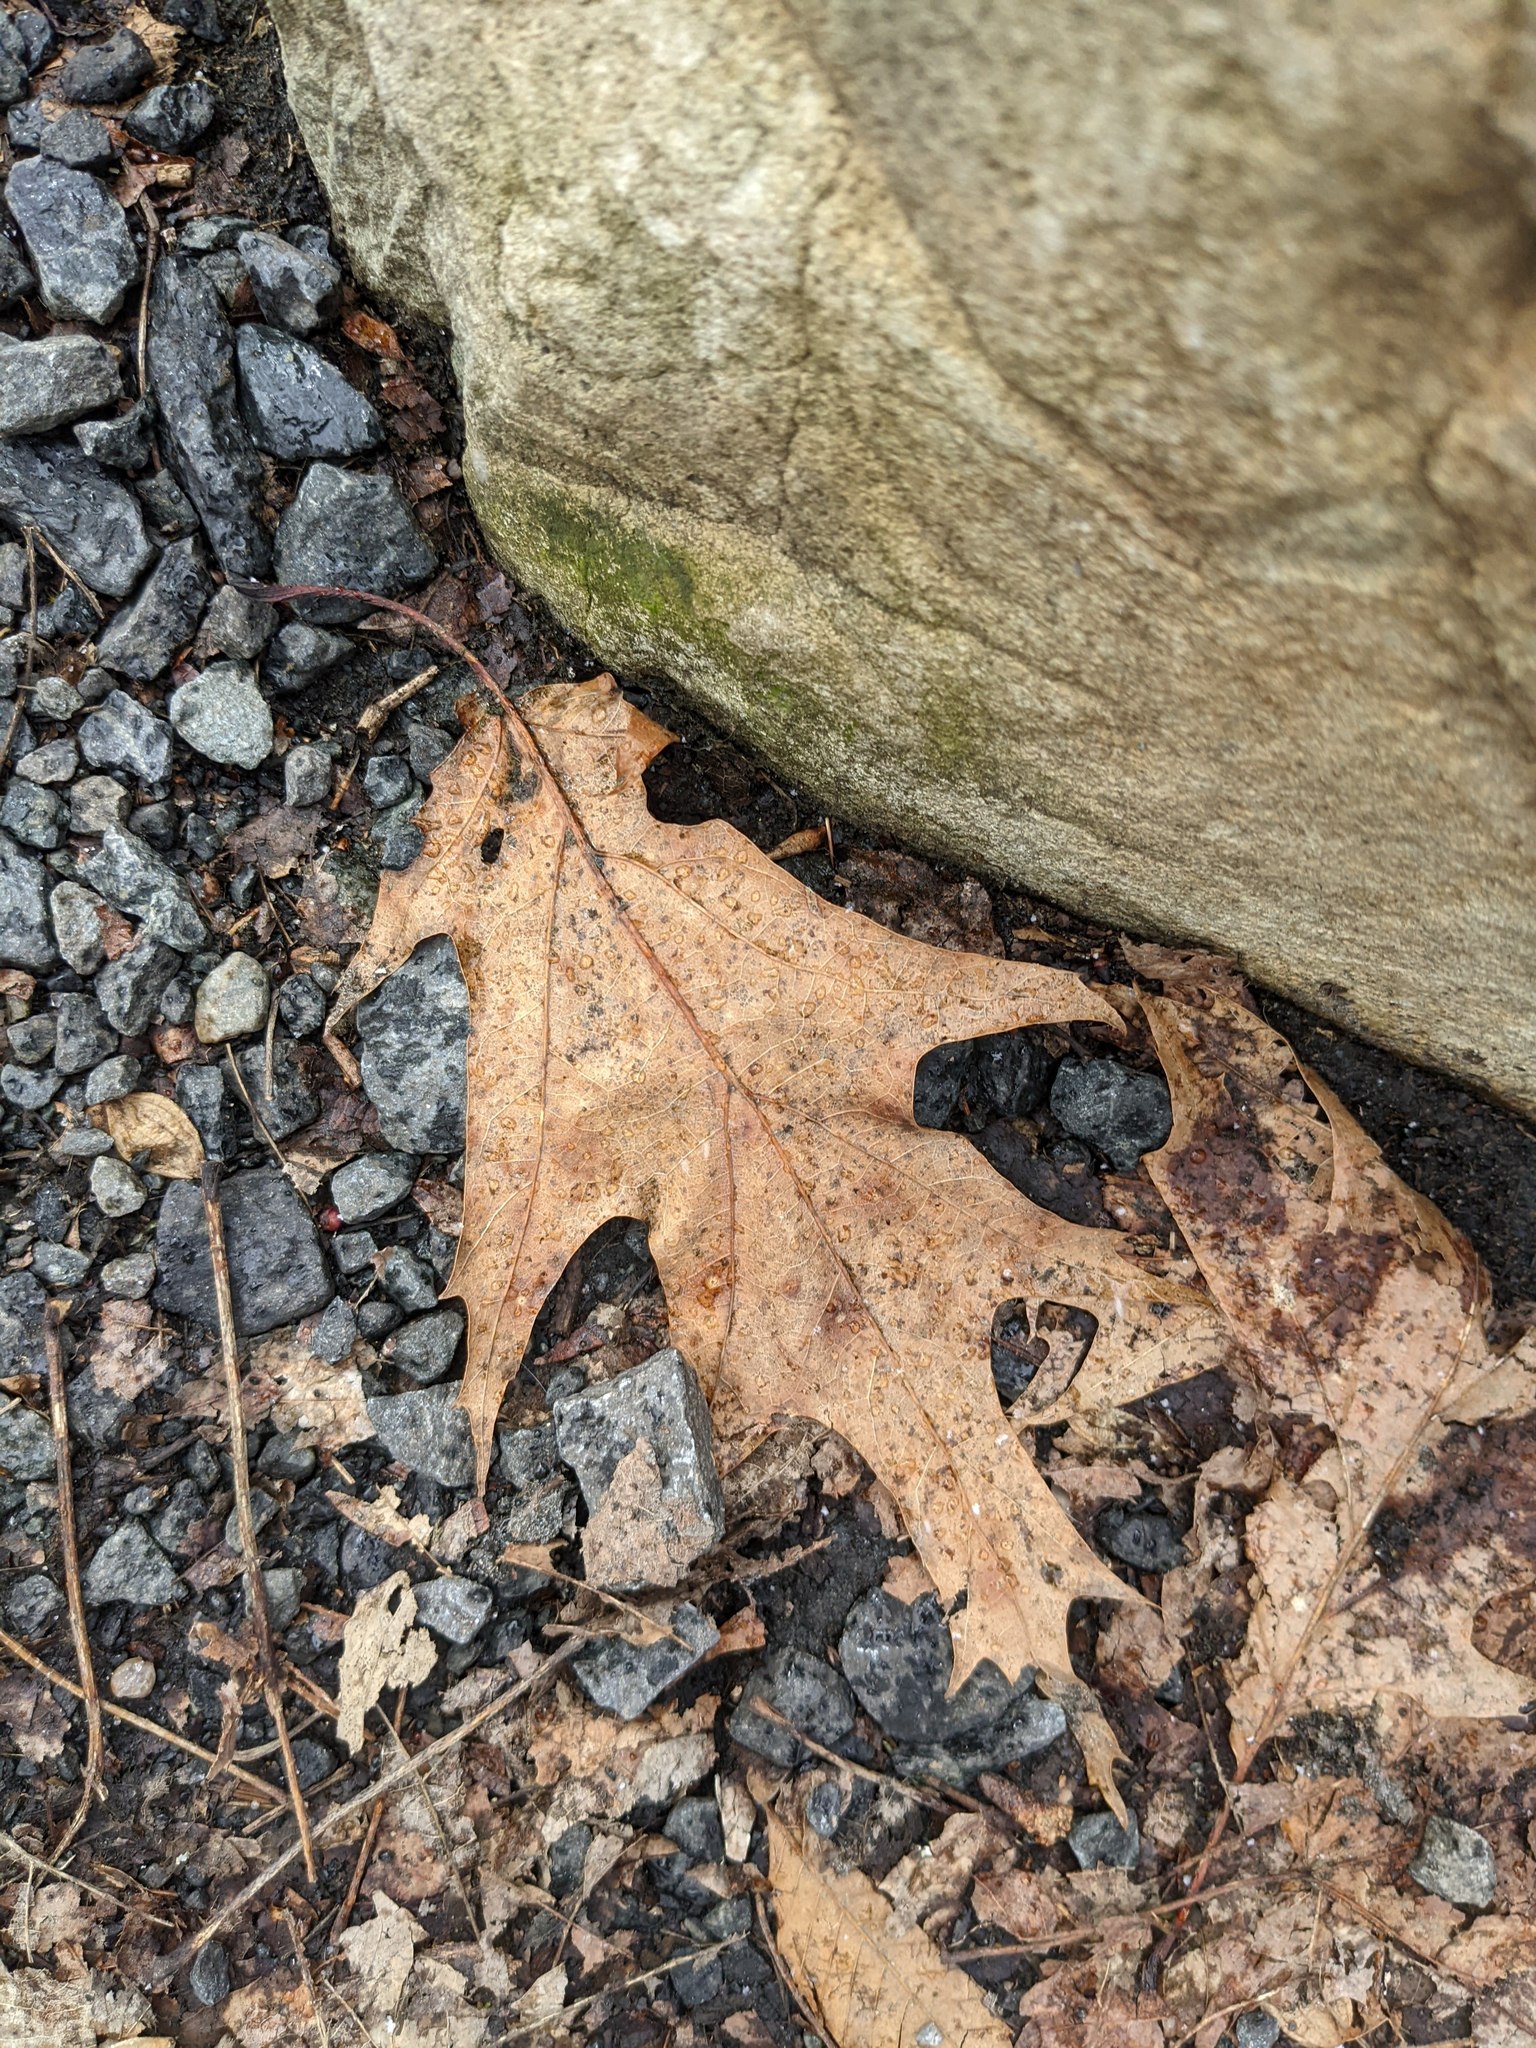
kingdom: Plantae
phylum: Tracheophyta
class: Magnoliopsida
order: Fagales
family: Fagaceae
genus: Quercus
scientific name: Quercus rubra
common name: Red oak
